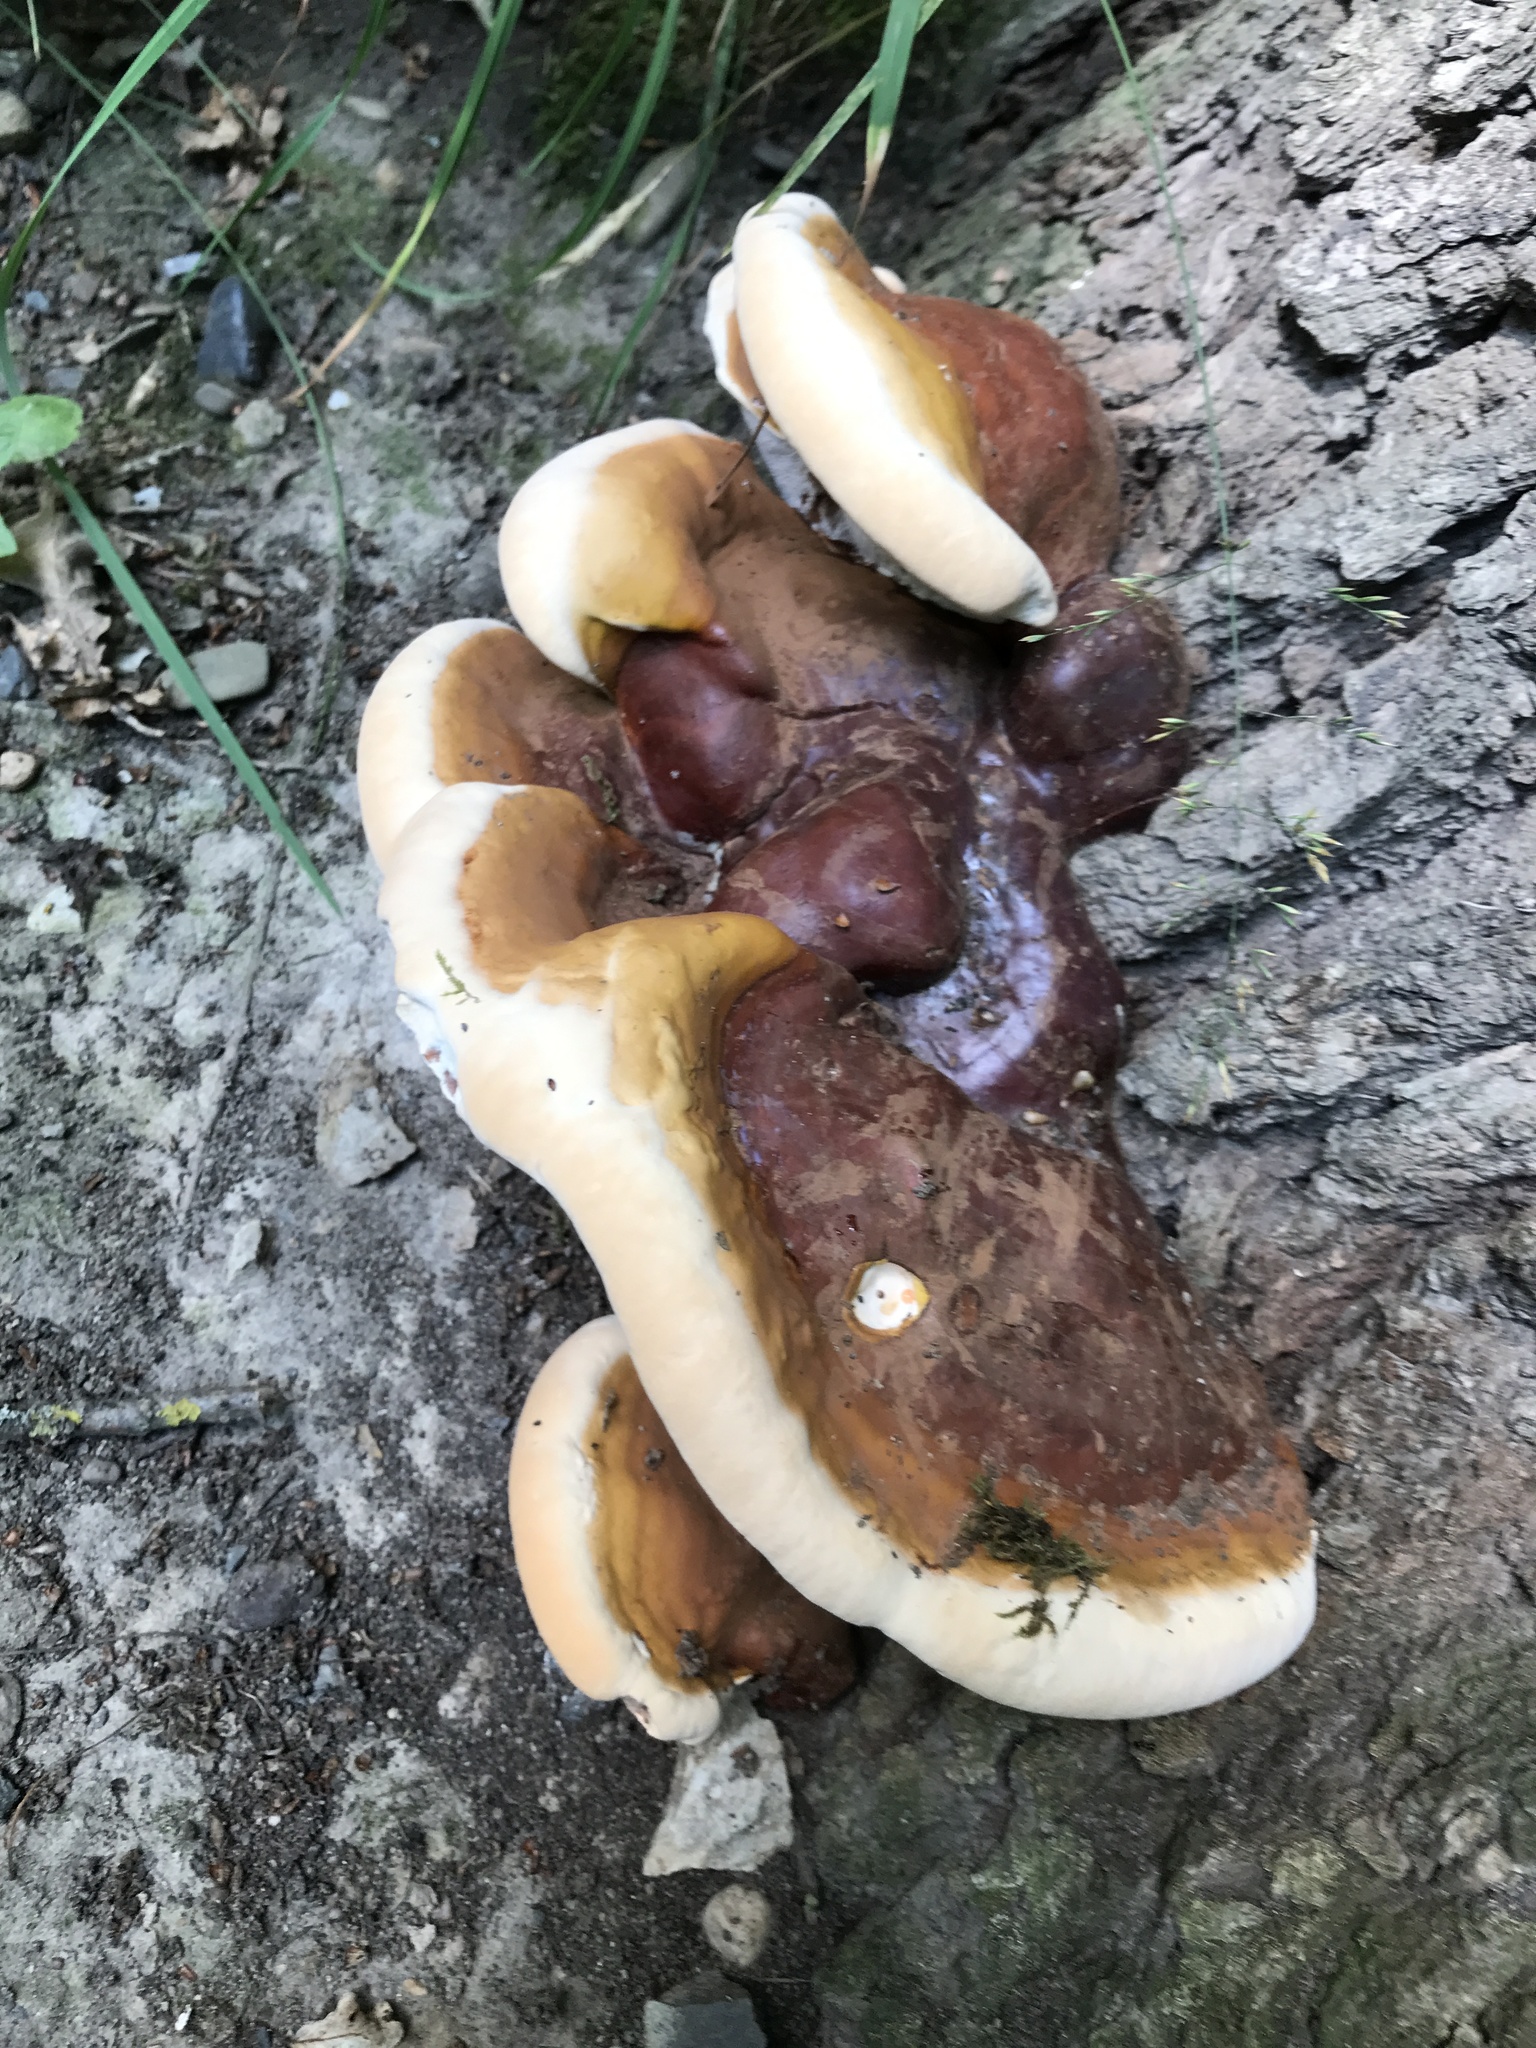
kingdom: Fungi
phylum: Basidiomycota
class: Agaricomycetes
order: Polyporales
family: Polyporaceae
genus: Ganoderma
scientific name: Ganoderma resinaceum
